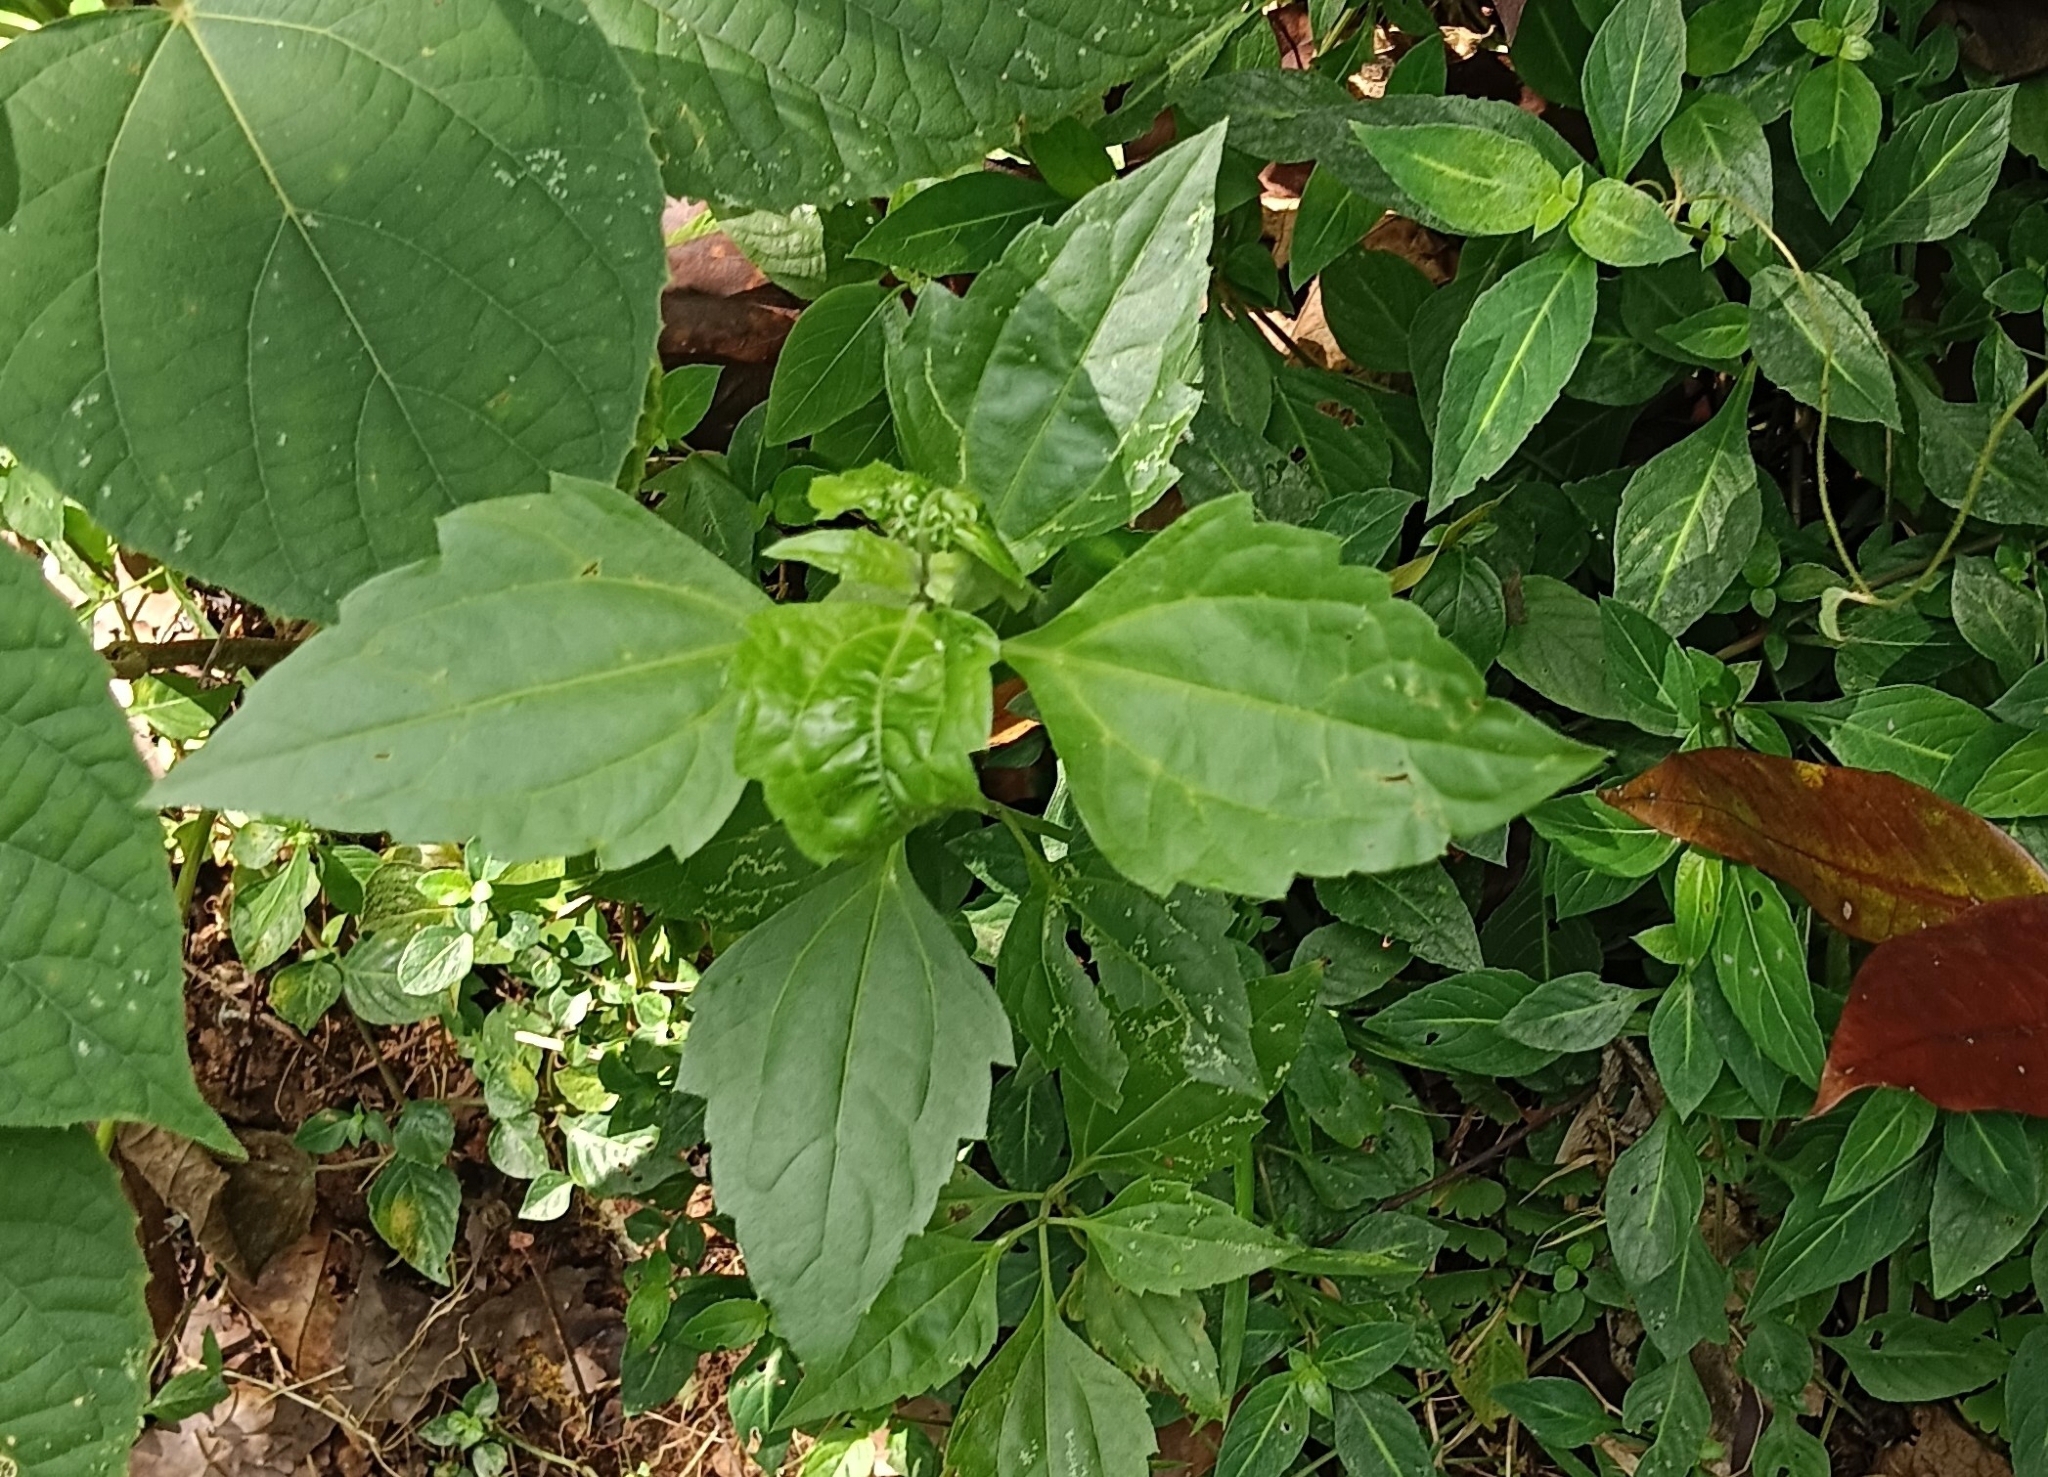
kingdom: Plantae
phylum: Tracheophyta
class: Magnoliopsida
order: Asterales
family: Asteraceae
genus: Chromolaena
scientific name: Chromolaena odorata
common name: Siamweed
